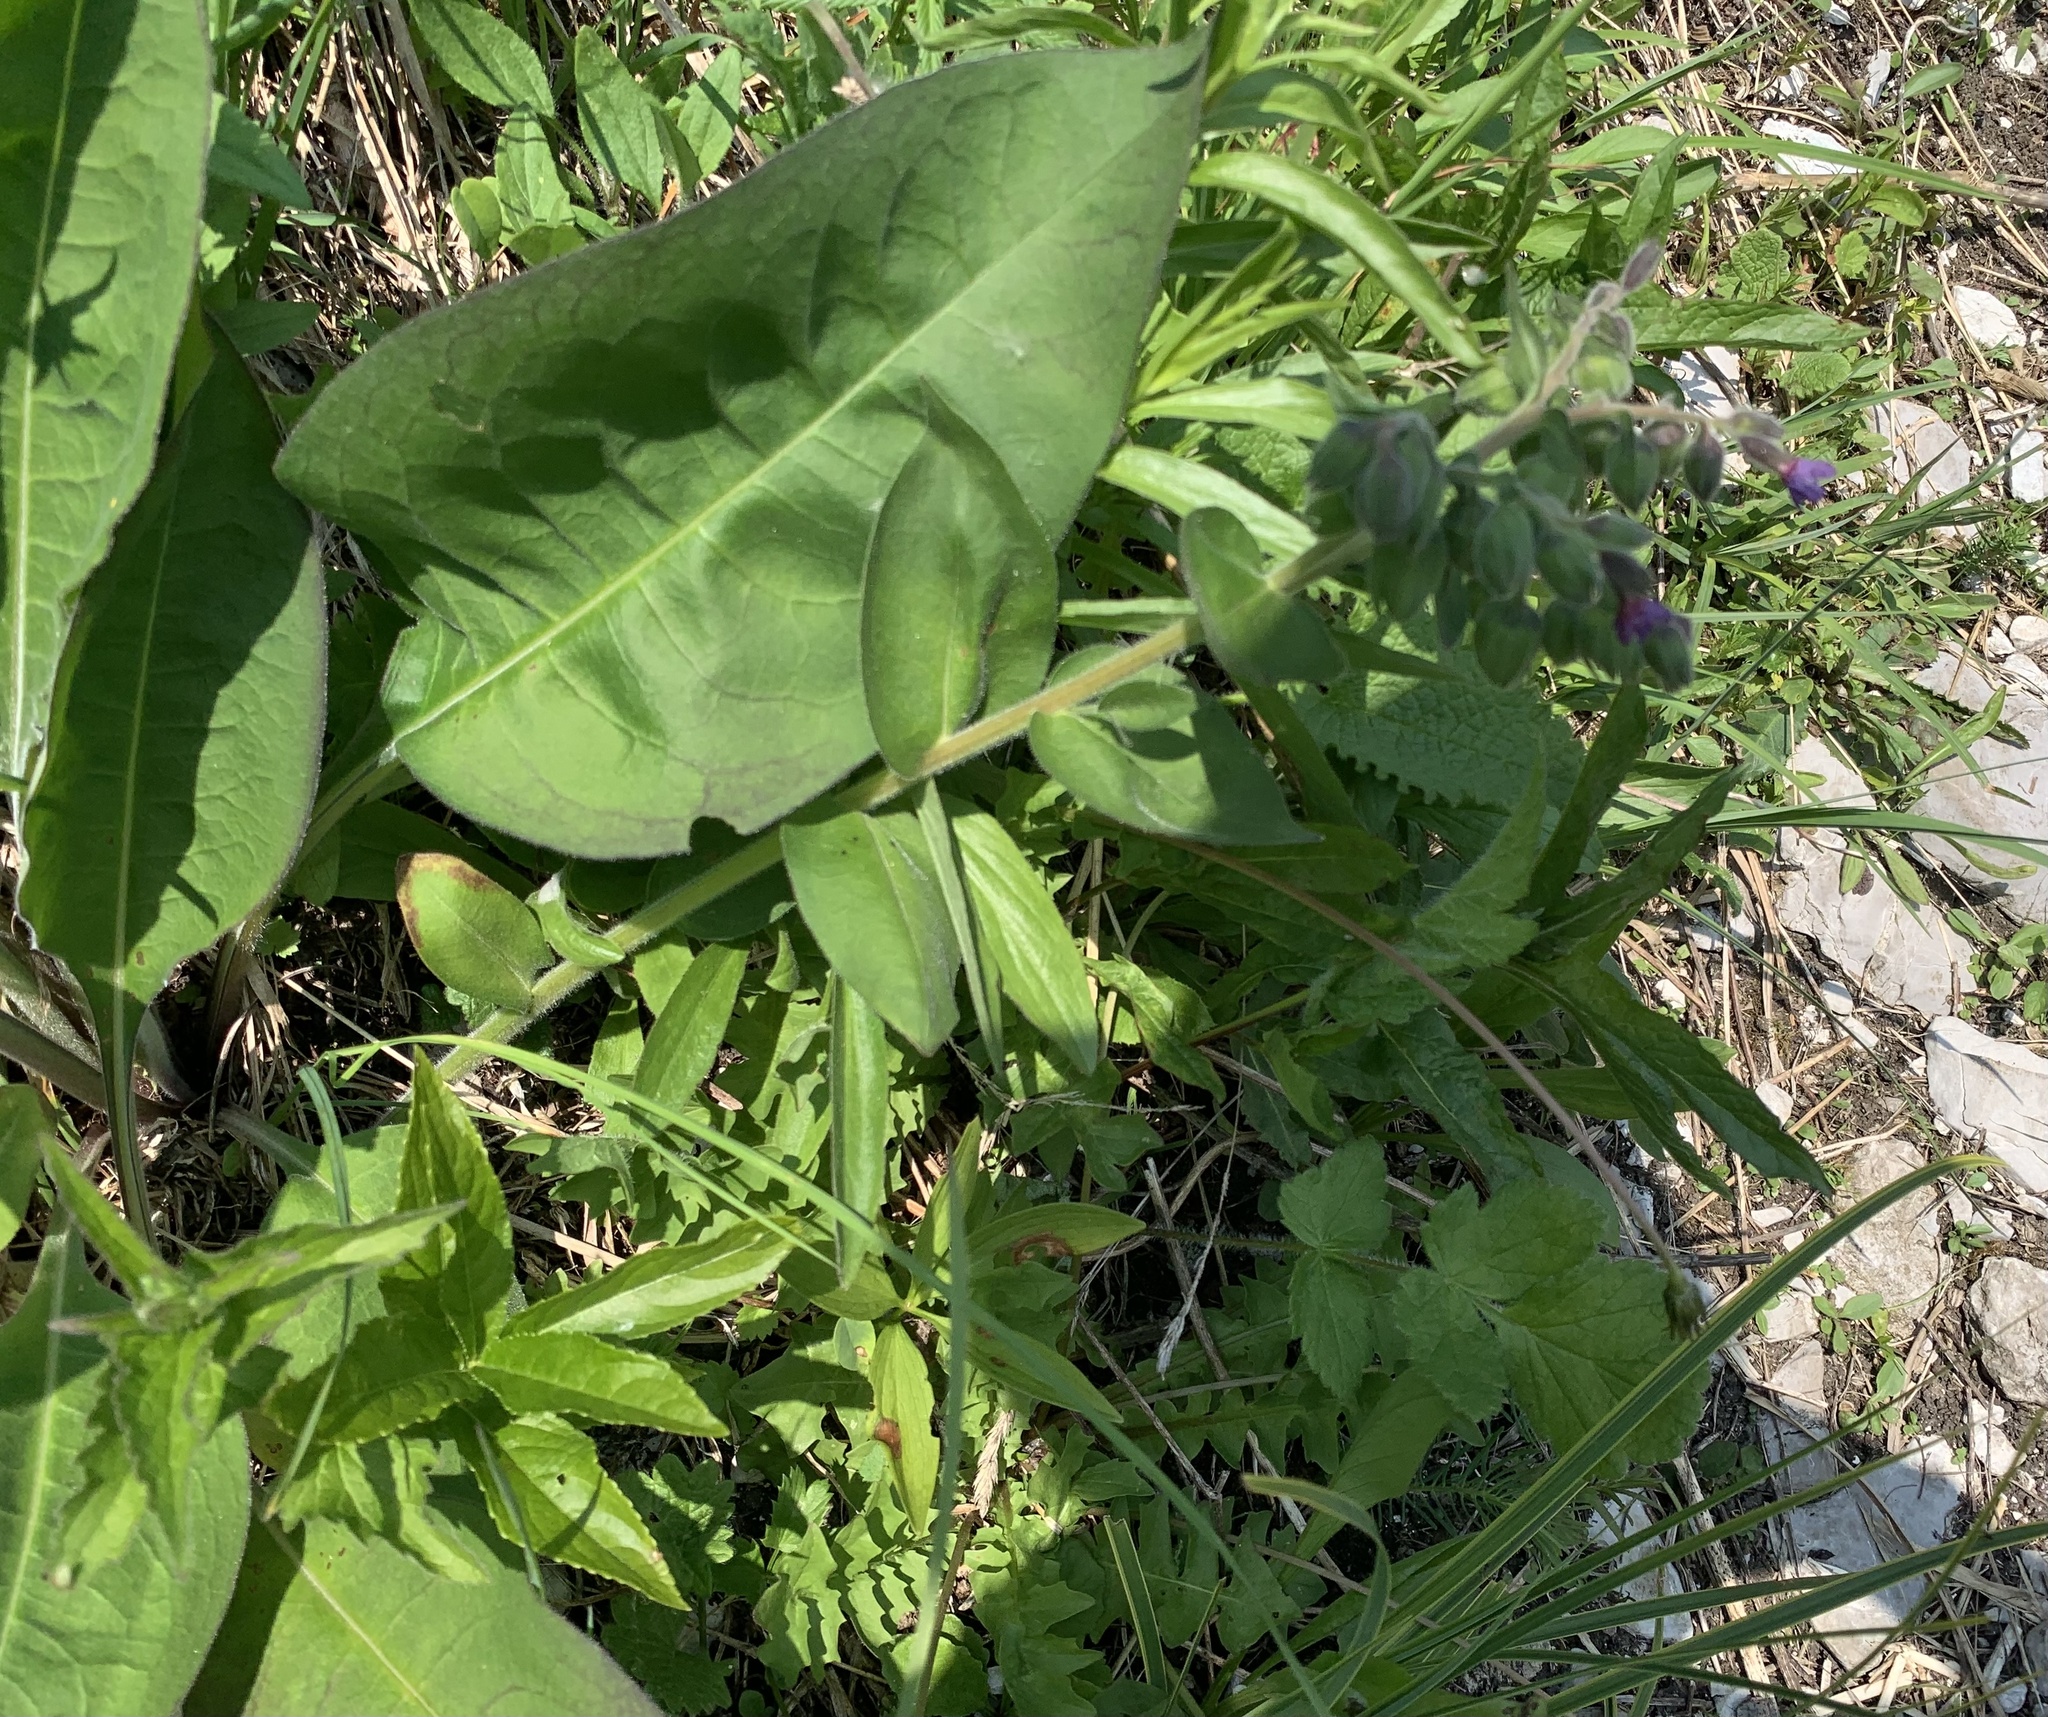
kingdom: Plantae
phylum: Tracheophyta
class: Magnoliopsida
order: Boraginales
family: Boraginaceae
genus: Pulmonaria
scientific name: Pulmonaria mollis
